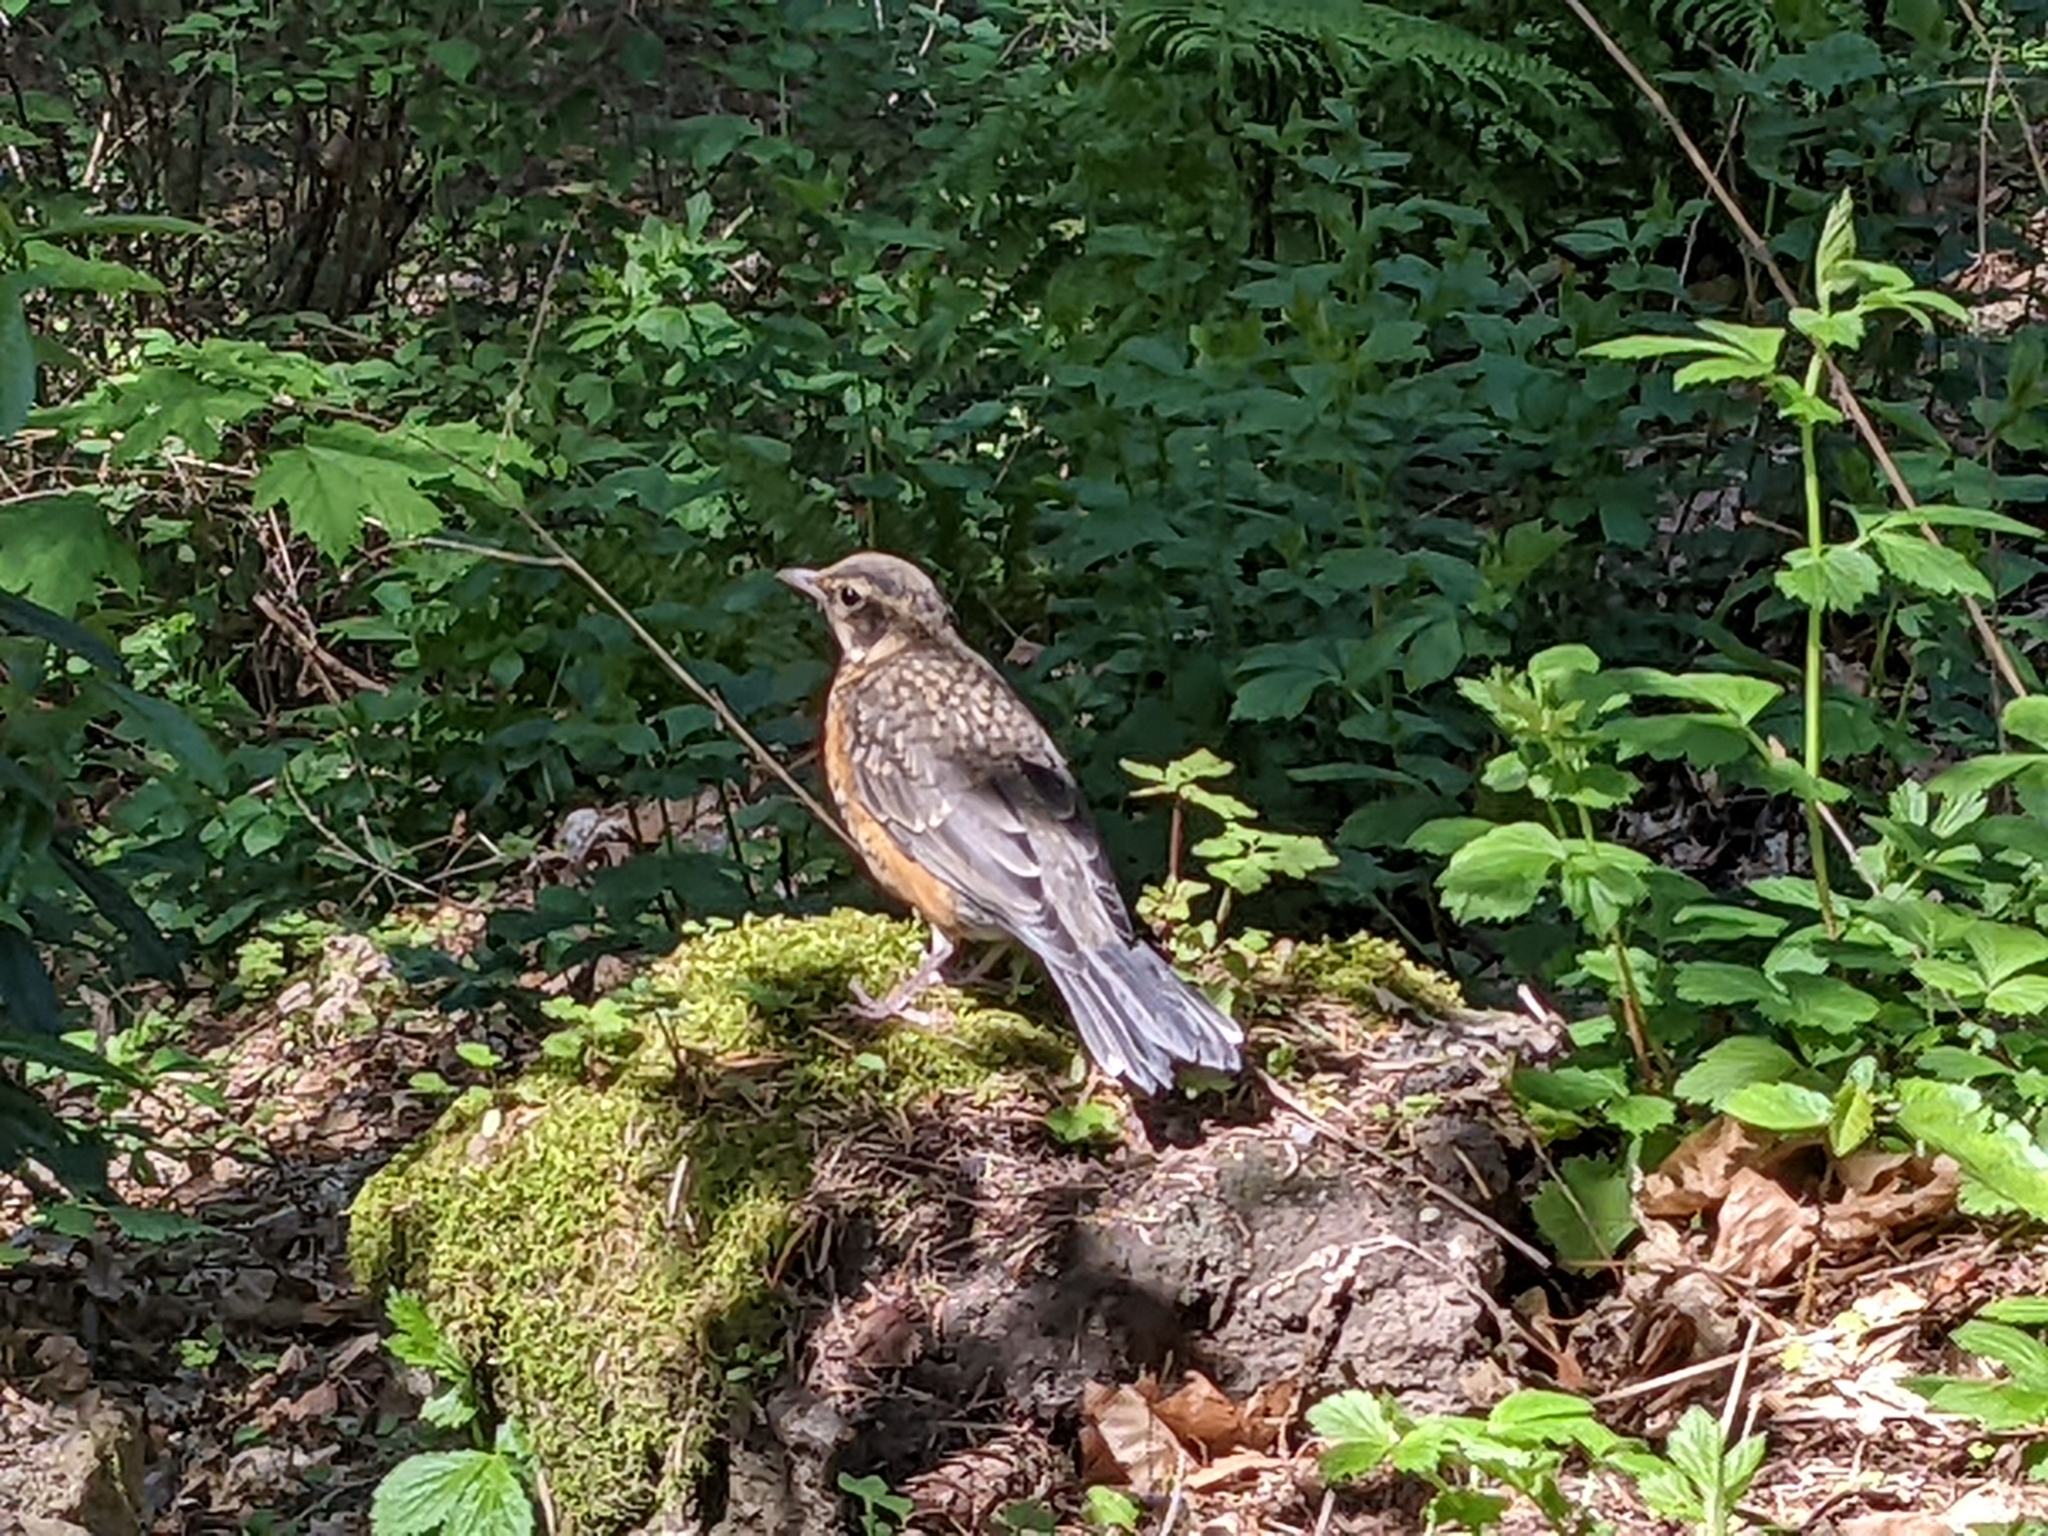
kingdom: Animalia
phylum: Chordata
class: Aves
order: Passeriformes
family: Turdidae
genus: Turdus
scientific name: Turdus migratorius
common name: American robin
